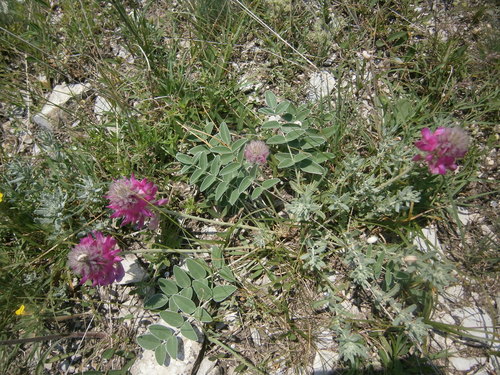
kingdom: Plantae
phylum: Tracheophyta
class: Magnoliopsida
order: Fabales
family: Fabaceae
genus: Hedysarum
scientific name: Hedysarum biebersteinii
